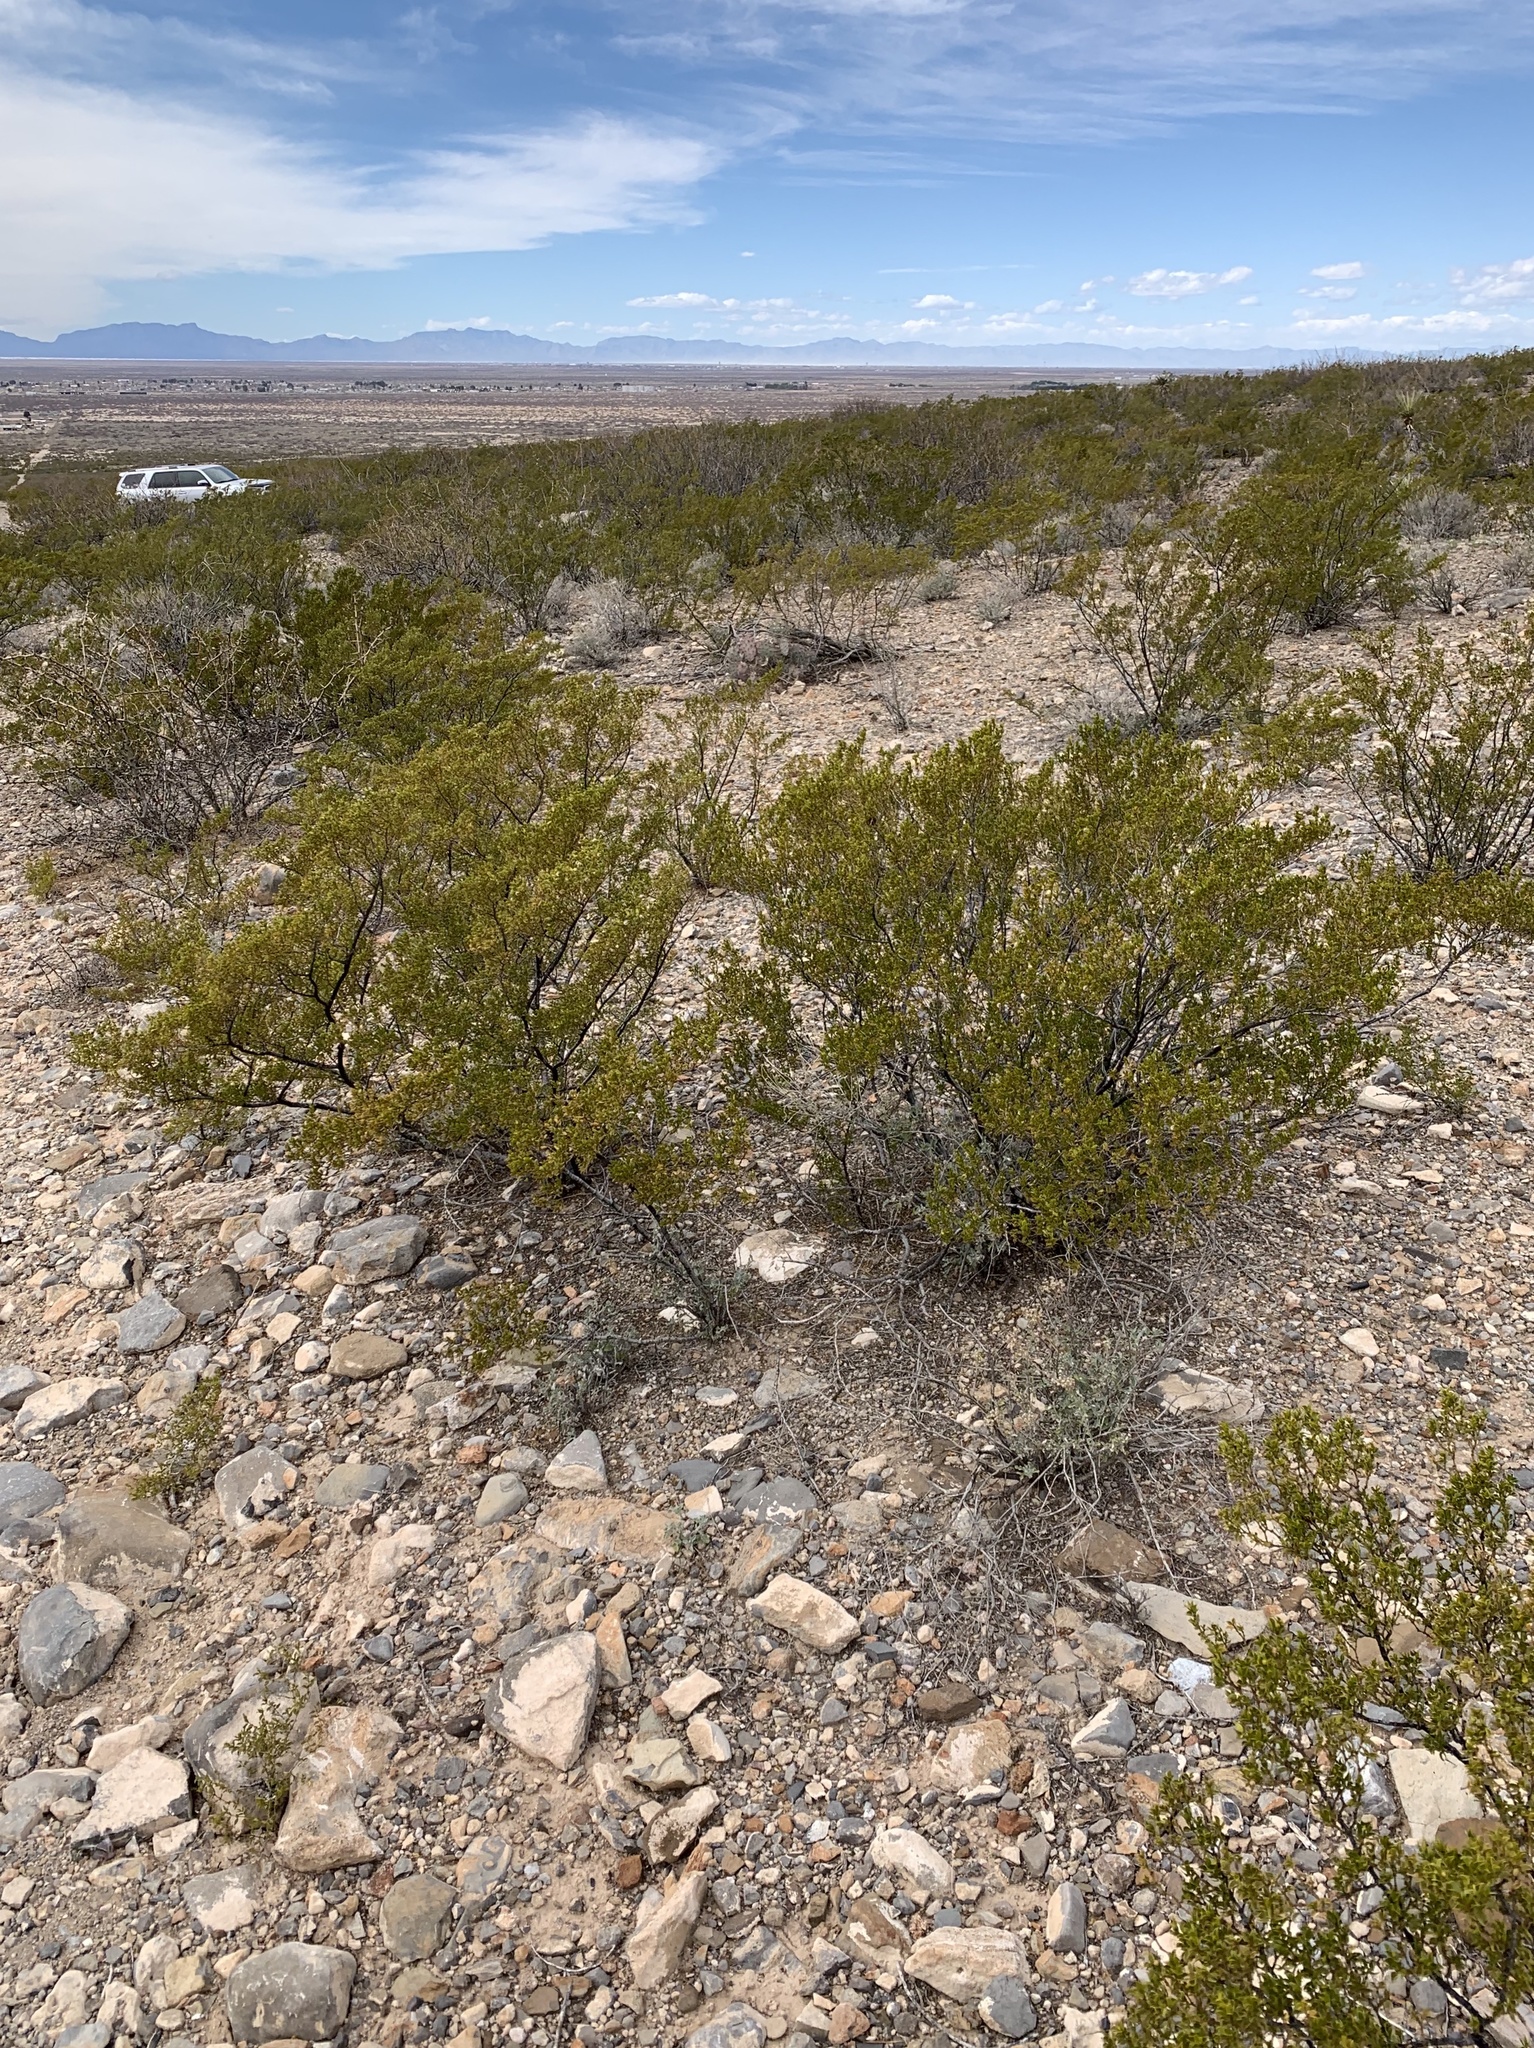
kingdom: Plantae
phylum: Tracheophyta
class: Magnoliopsida
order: Zygophyllales
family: Zygophyllaceae
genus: Larrea
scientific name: Larrea tridentata
